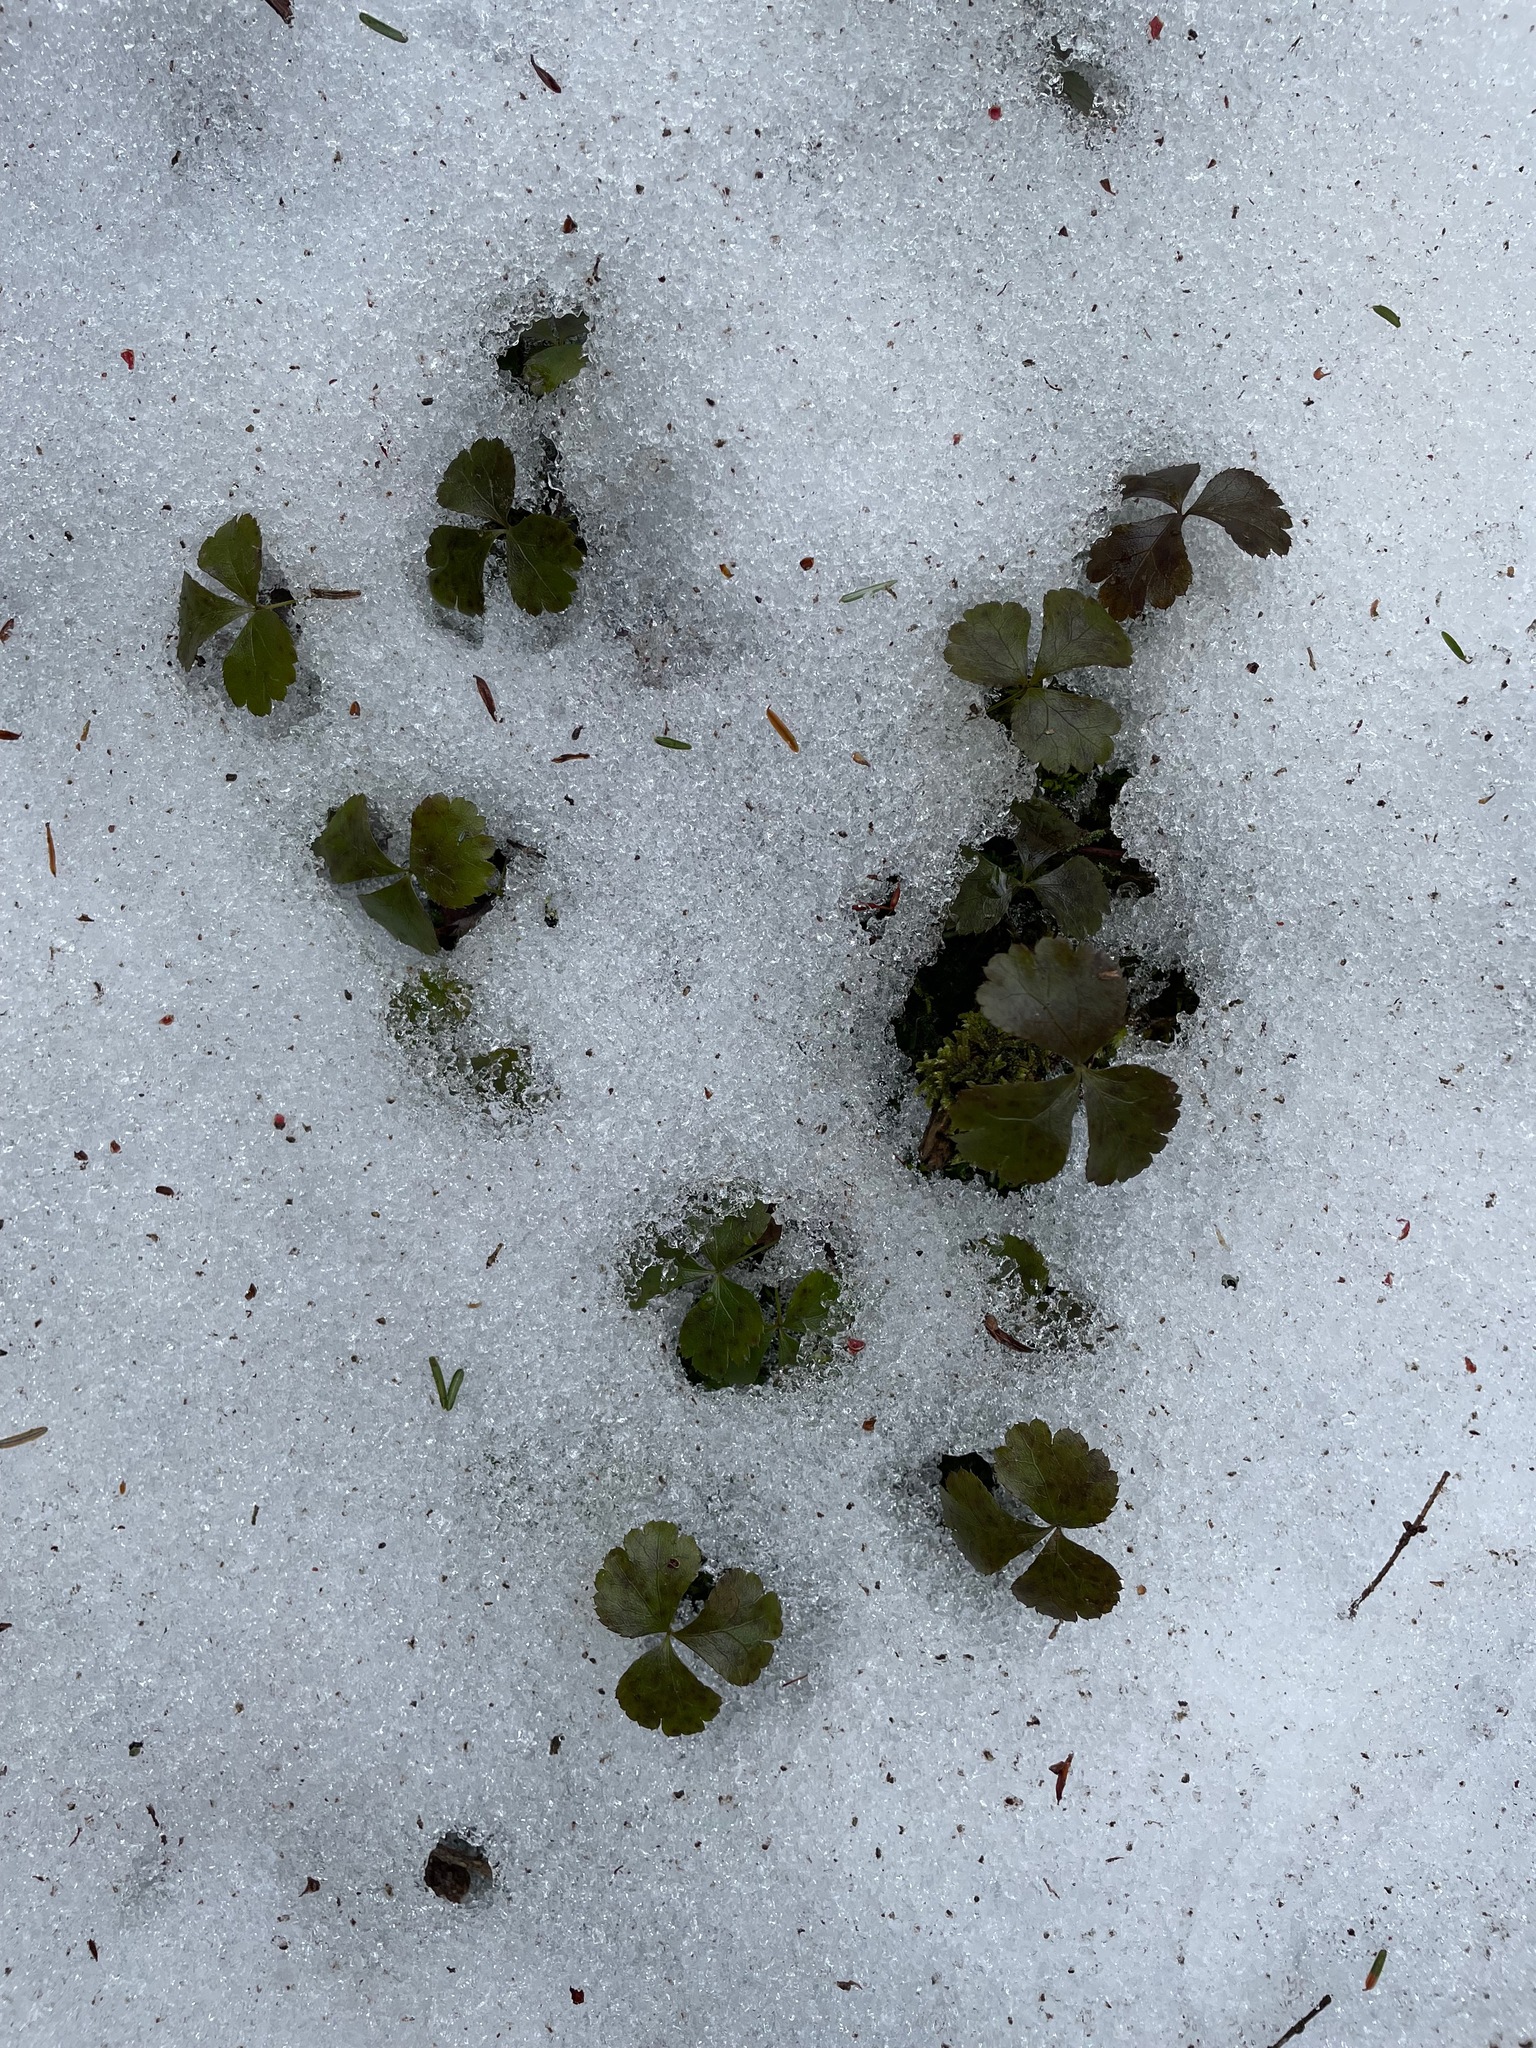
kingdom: Plantae
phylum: Tracheophyta
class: Magnoliopsida
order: Ranunculales
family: Ranunculaceae
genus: Coptis
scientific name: Coptis trifolia
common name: Canker-root
